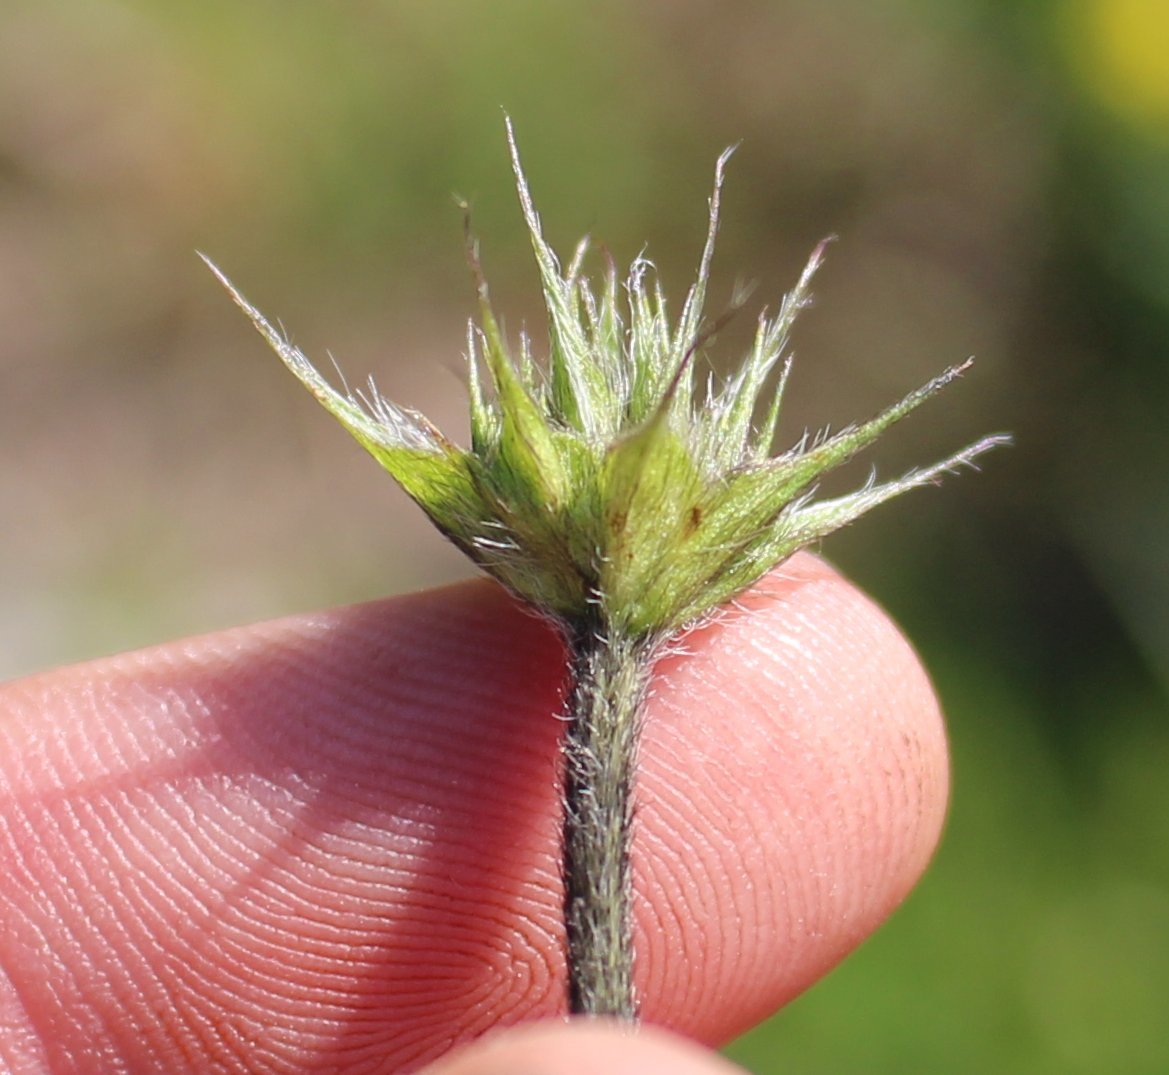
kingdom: Plantae
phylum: Tracheophyta
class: Magnoliopsida
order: Fabales
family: Fabaceae
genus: Bituminaria
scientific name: Bituminaria bituminosa
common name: Arabian pea
